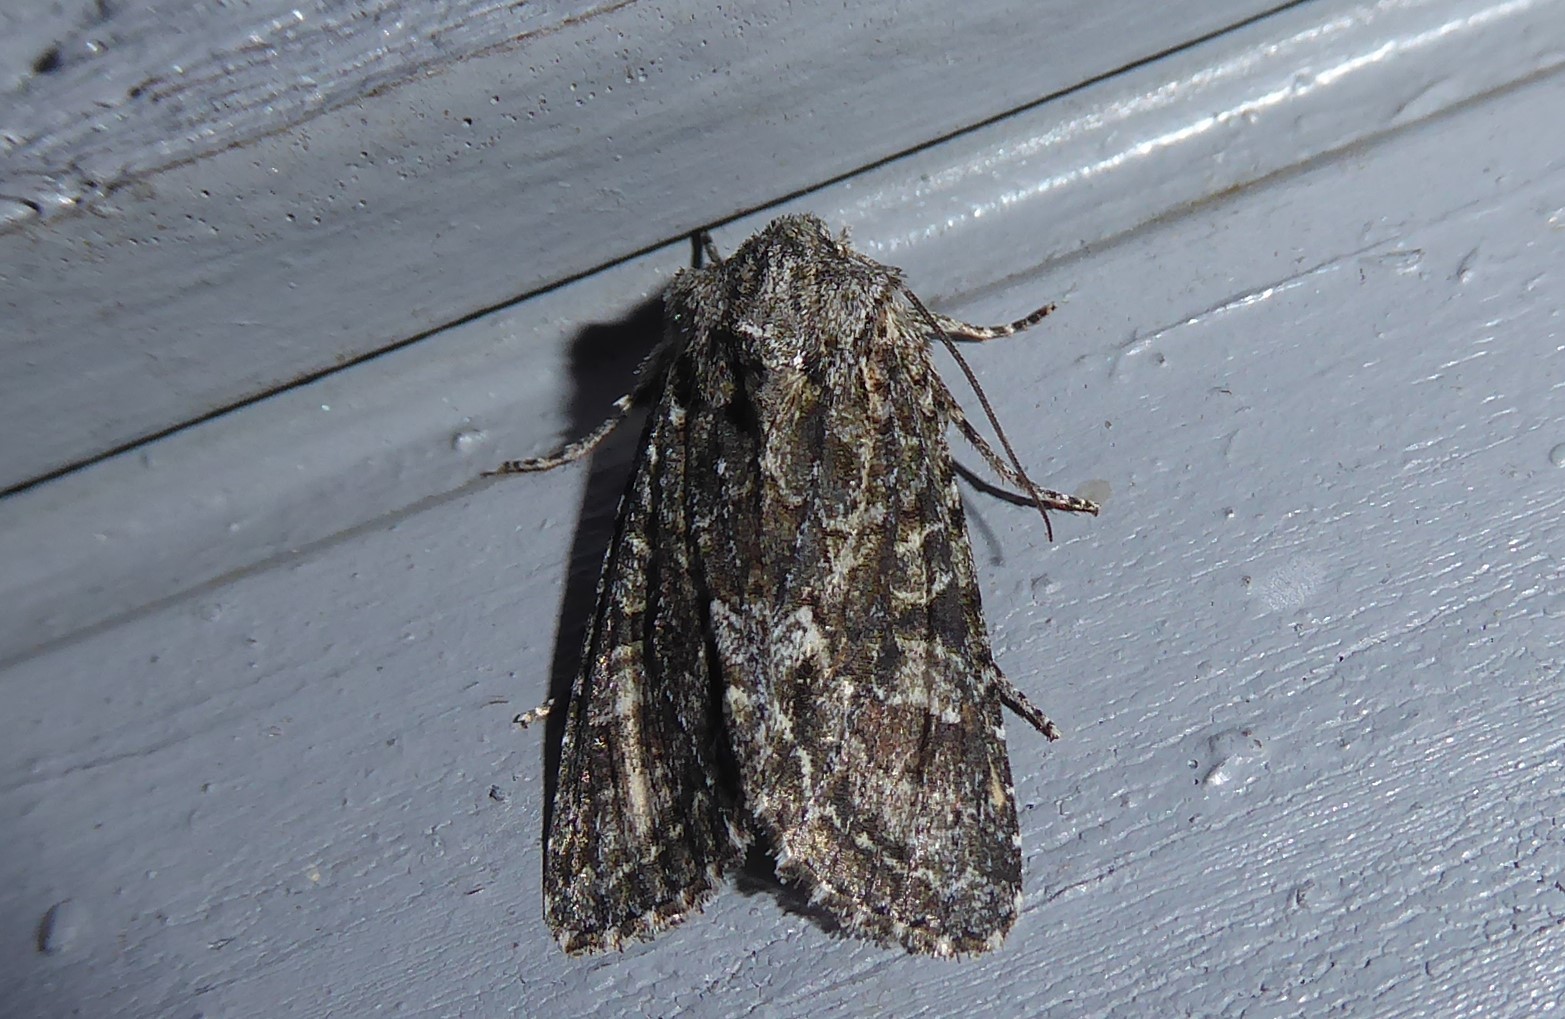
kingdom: Animalia
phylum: Arthropoda
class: Insecta
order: Lepidoptera
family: Noctuidae
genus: Ichneutica
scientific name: Ichneutica mutans
